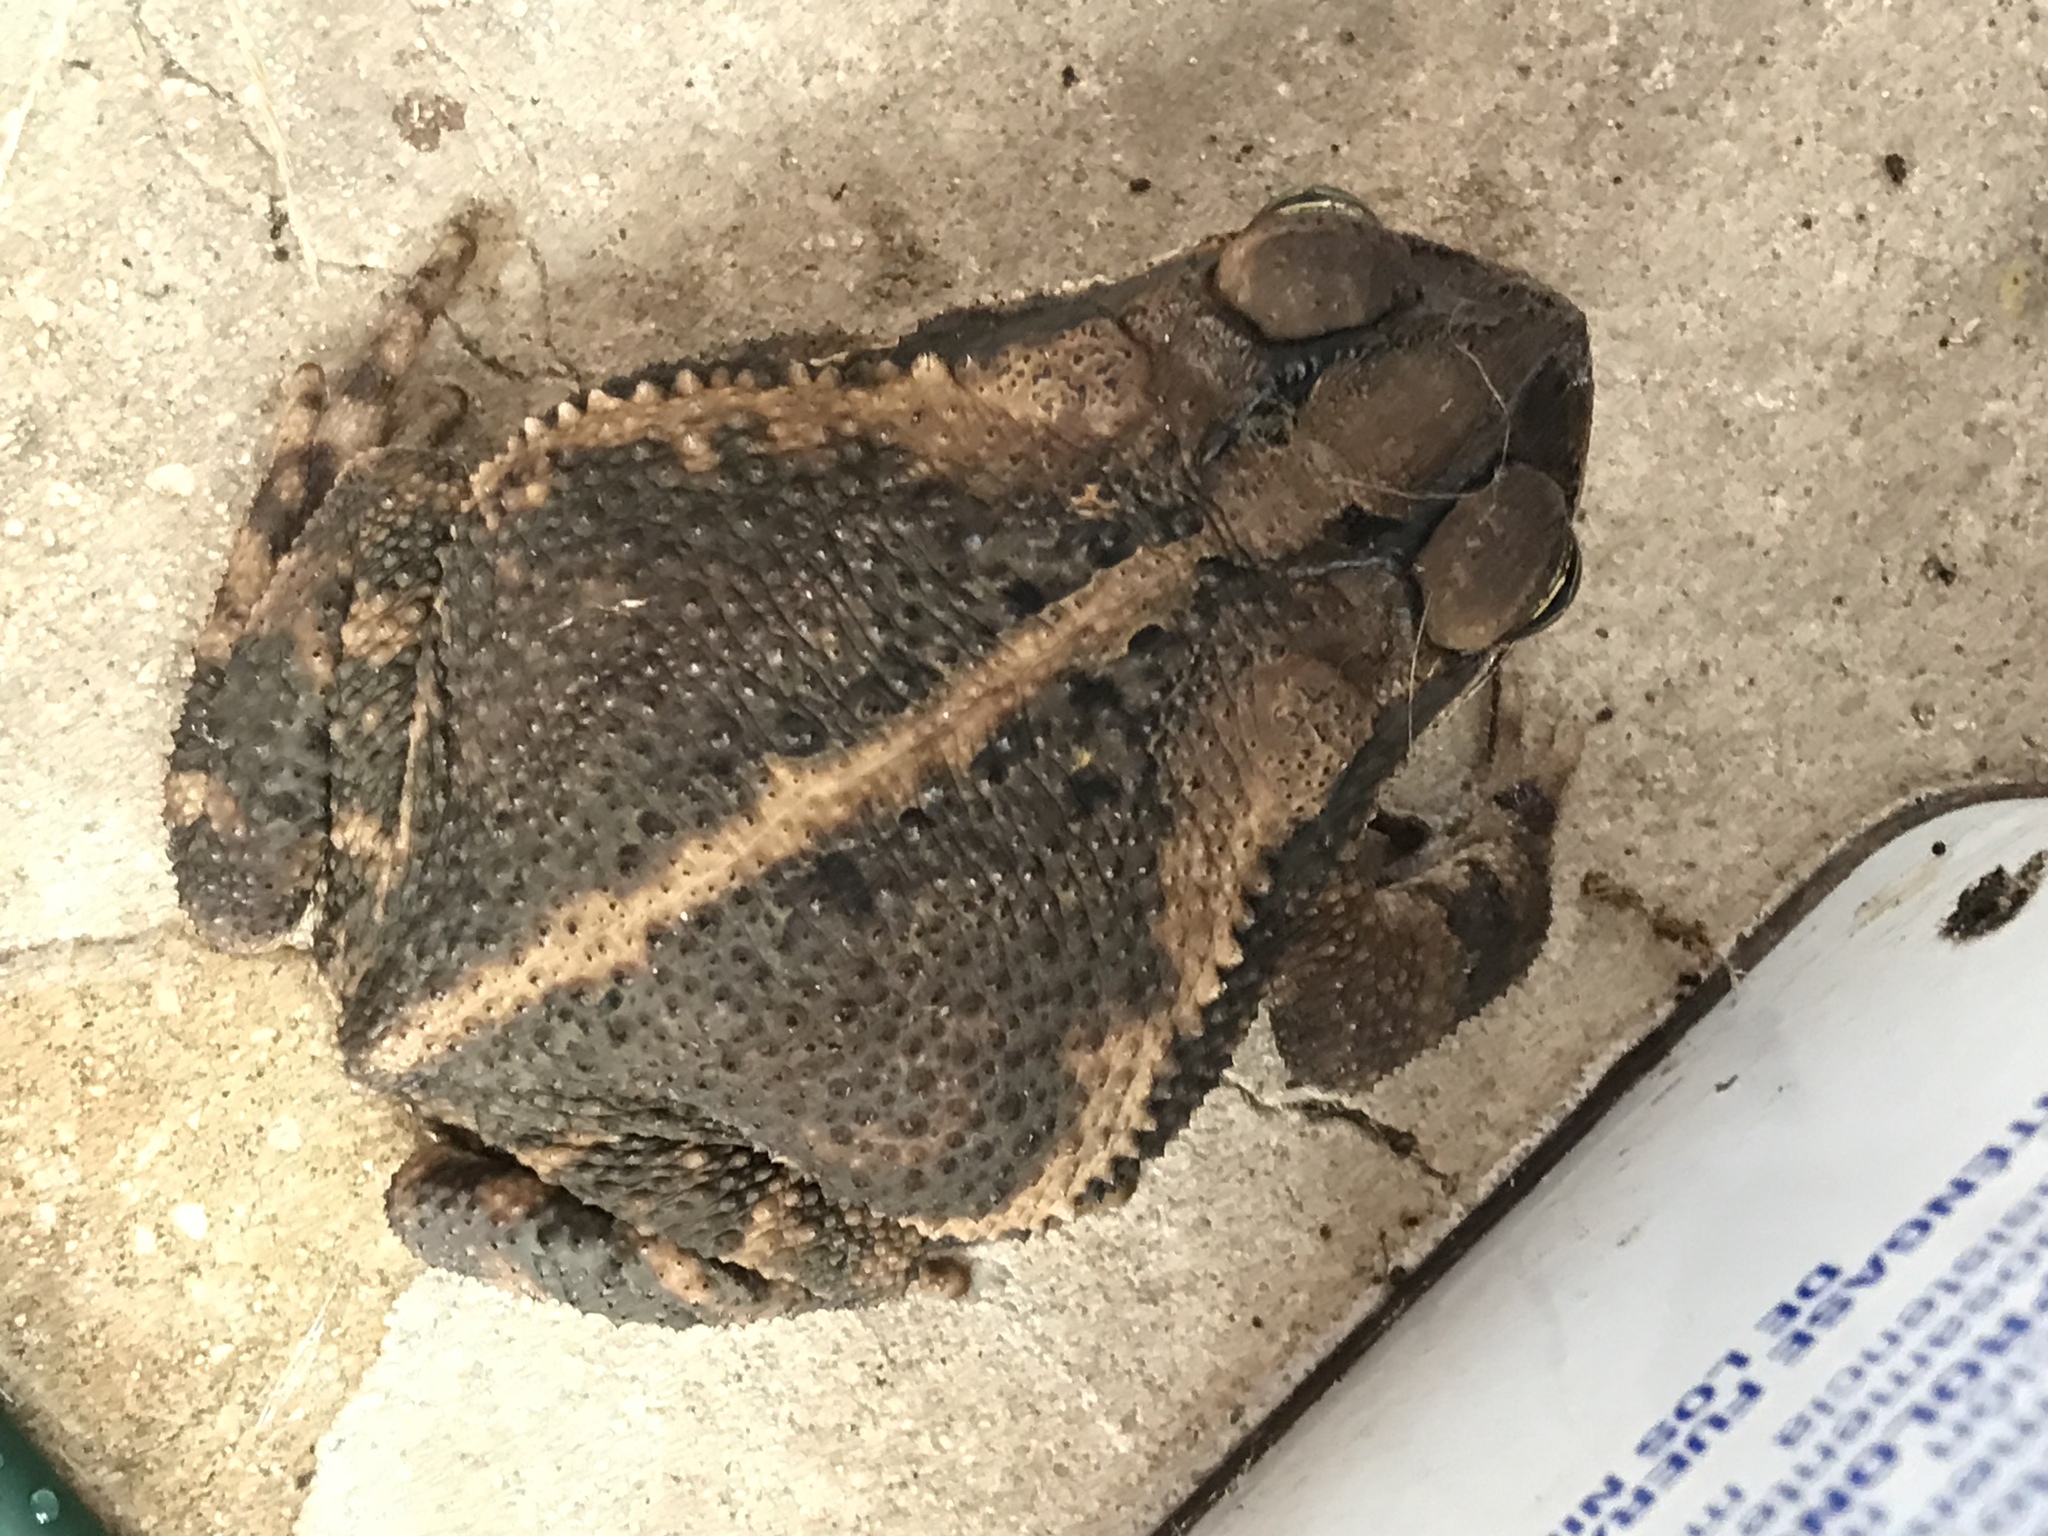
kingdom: Animalia
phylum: Chordata
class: Amphibia
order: Anura
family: Bufonidae
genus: Incilius
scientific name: Incilius nebulifer
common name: Gulf coast toad
